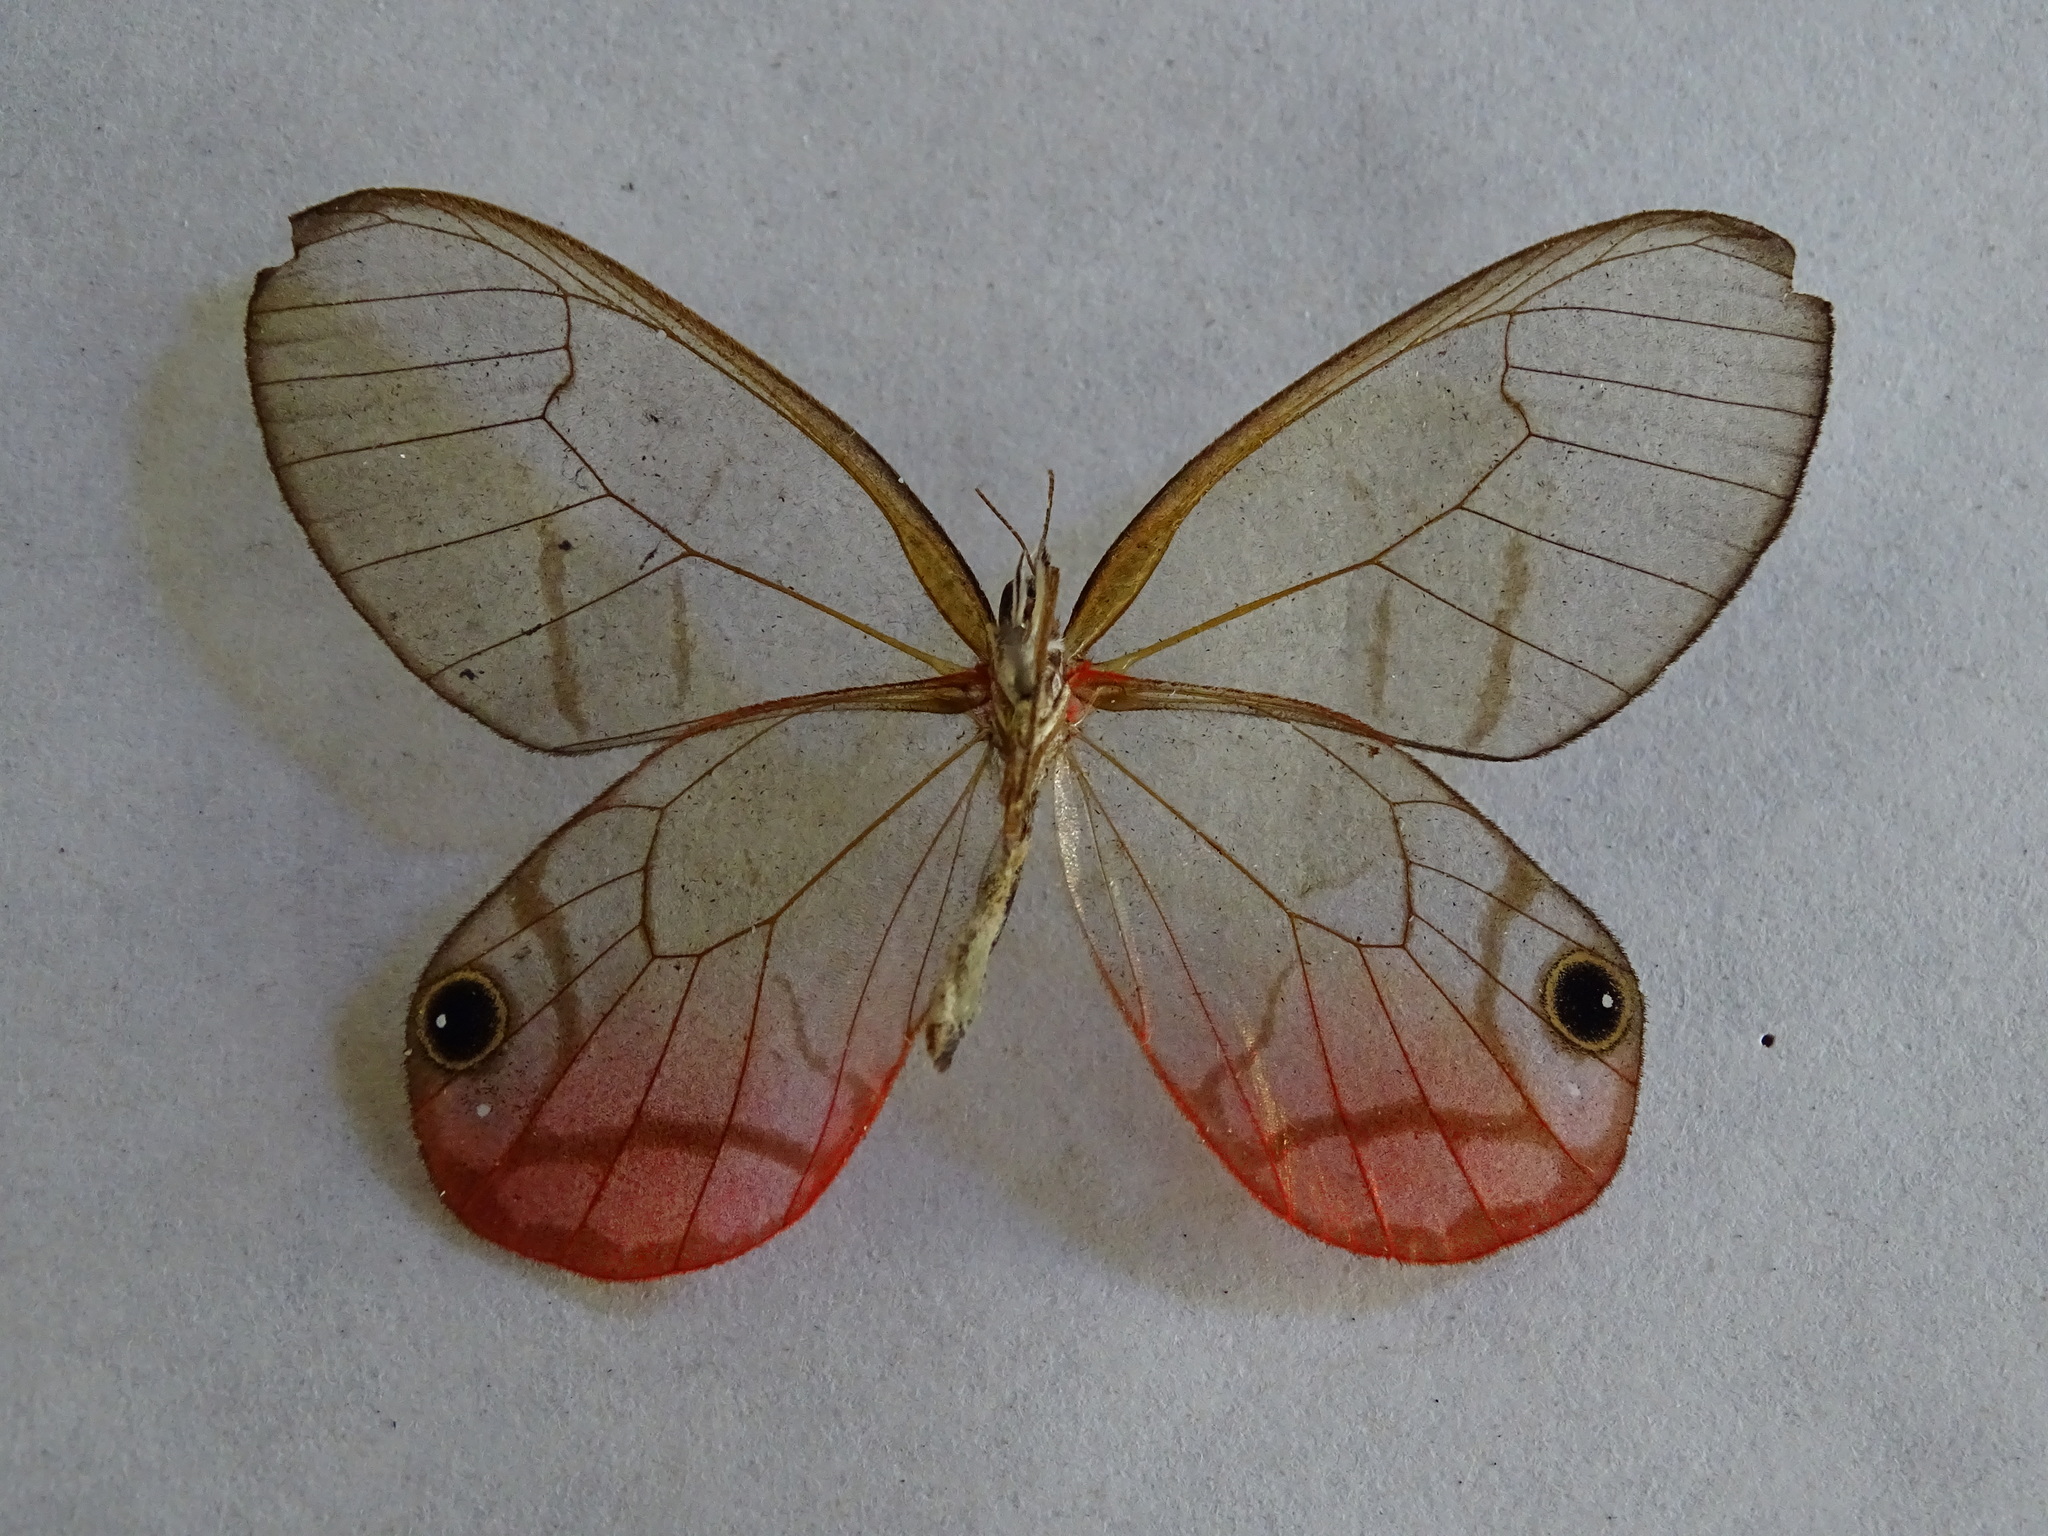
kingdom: Animalia
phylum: Arthropoda
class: Insecta
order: Lepidoptera
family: Nymphalidae
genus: Cithaerias
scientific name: Cithaerias pireta
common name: Rusted clearwing-satyr
